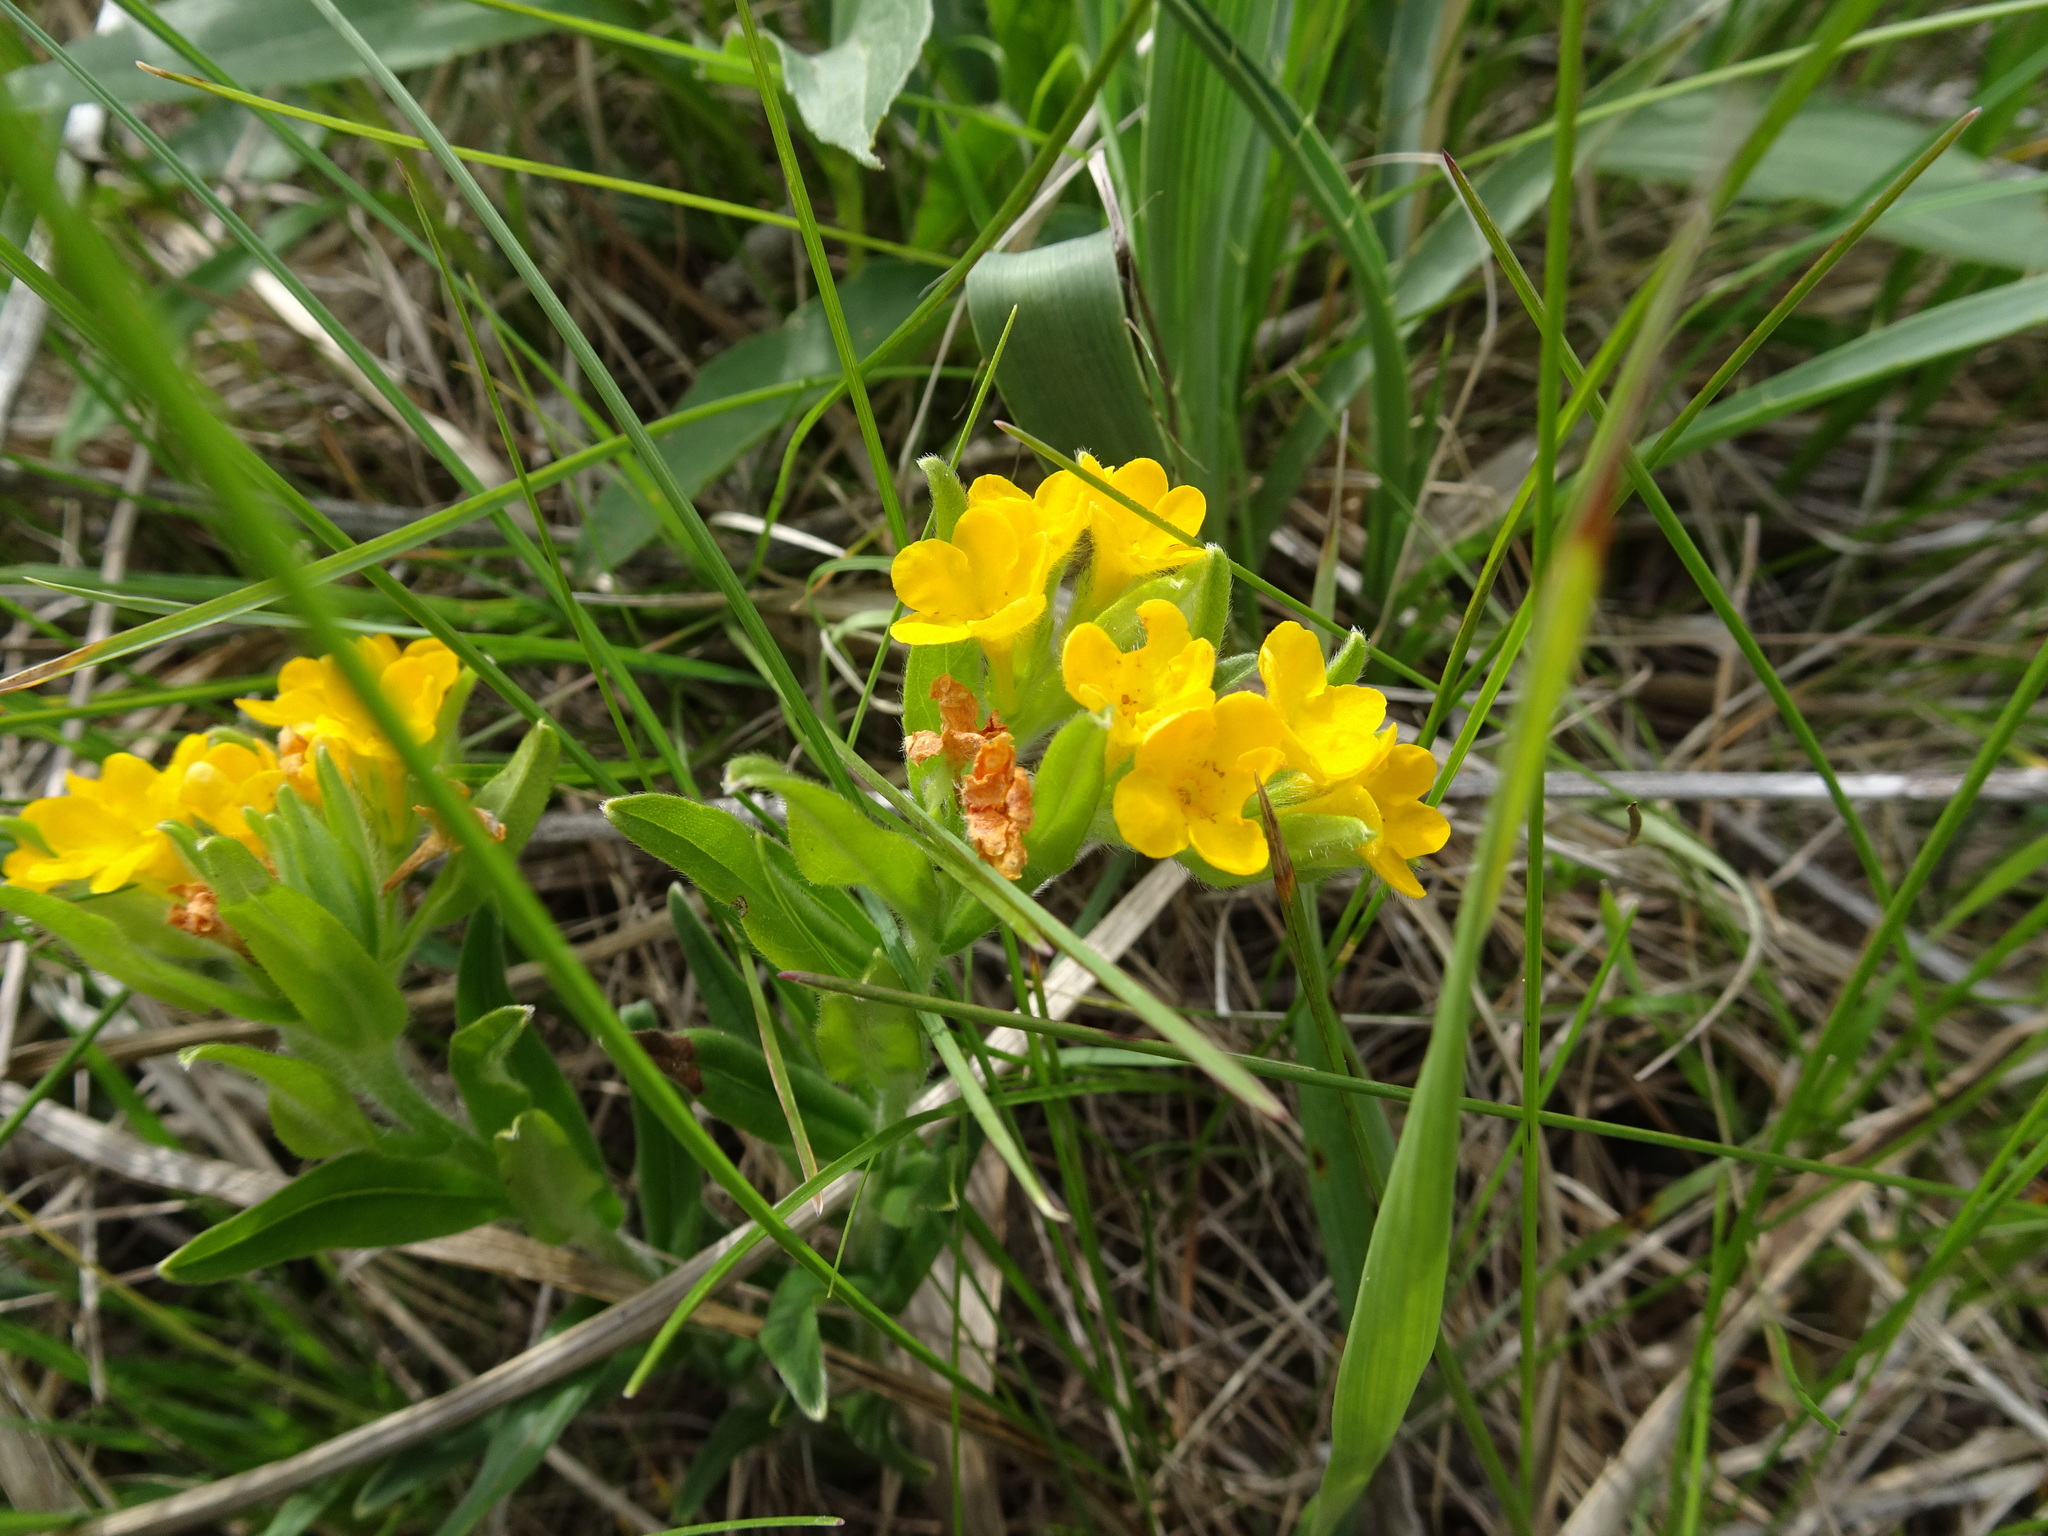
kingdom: Plantae
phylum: Tracheophyta
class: Magnoliopsida
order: Boraginales
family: Boraginaceae
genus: Lithospermum
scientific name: Lithospermum canescens
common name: Hoary puccoon
